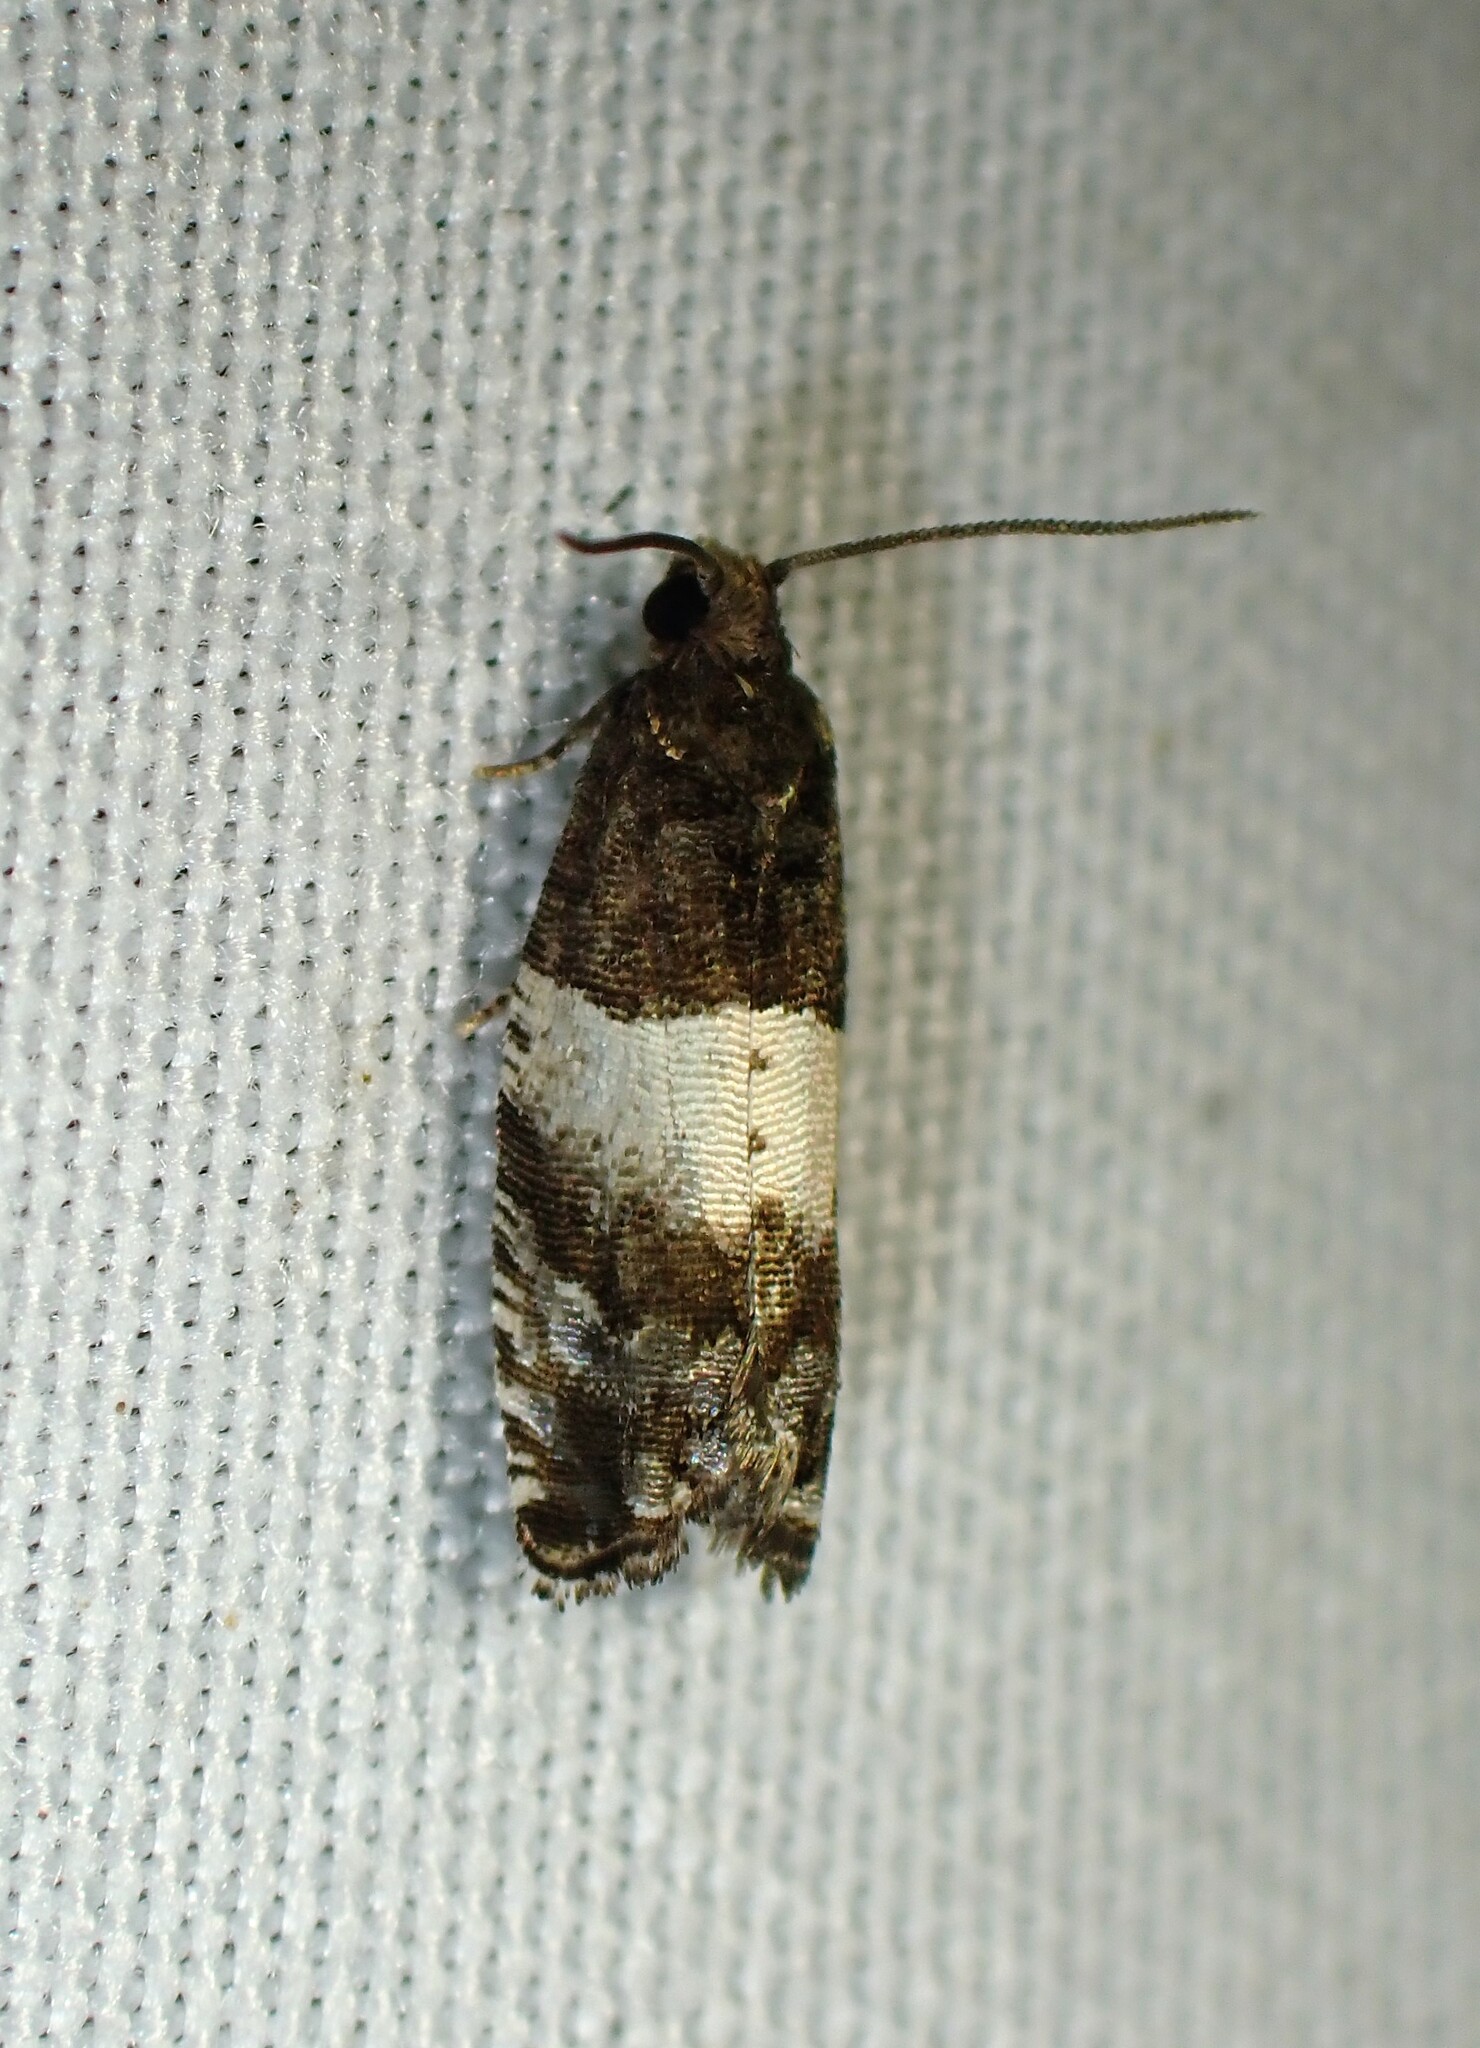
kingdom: Animalia
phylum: Arthropoda
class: Insecta
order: Lepidoptera
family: Tortricidae
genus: Gypsonoma
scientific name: Gypsonoma substitutionis
